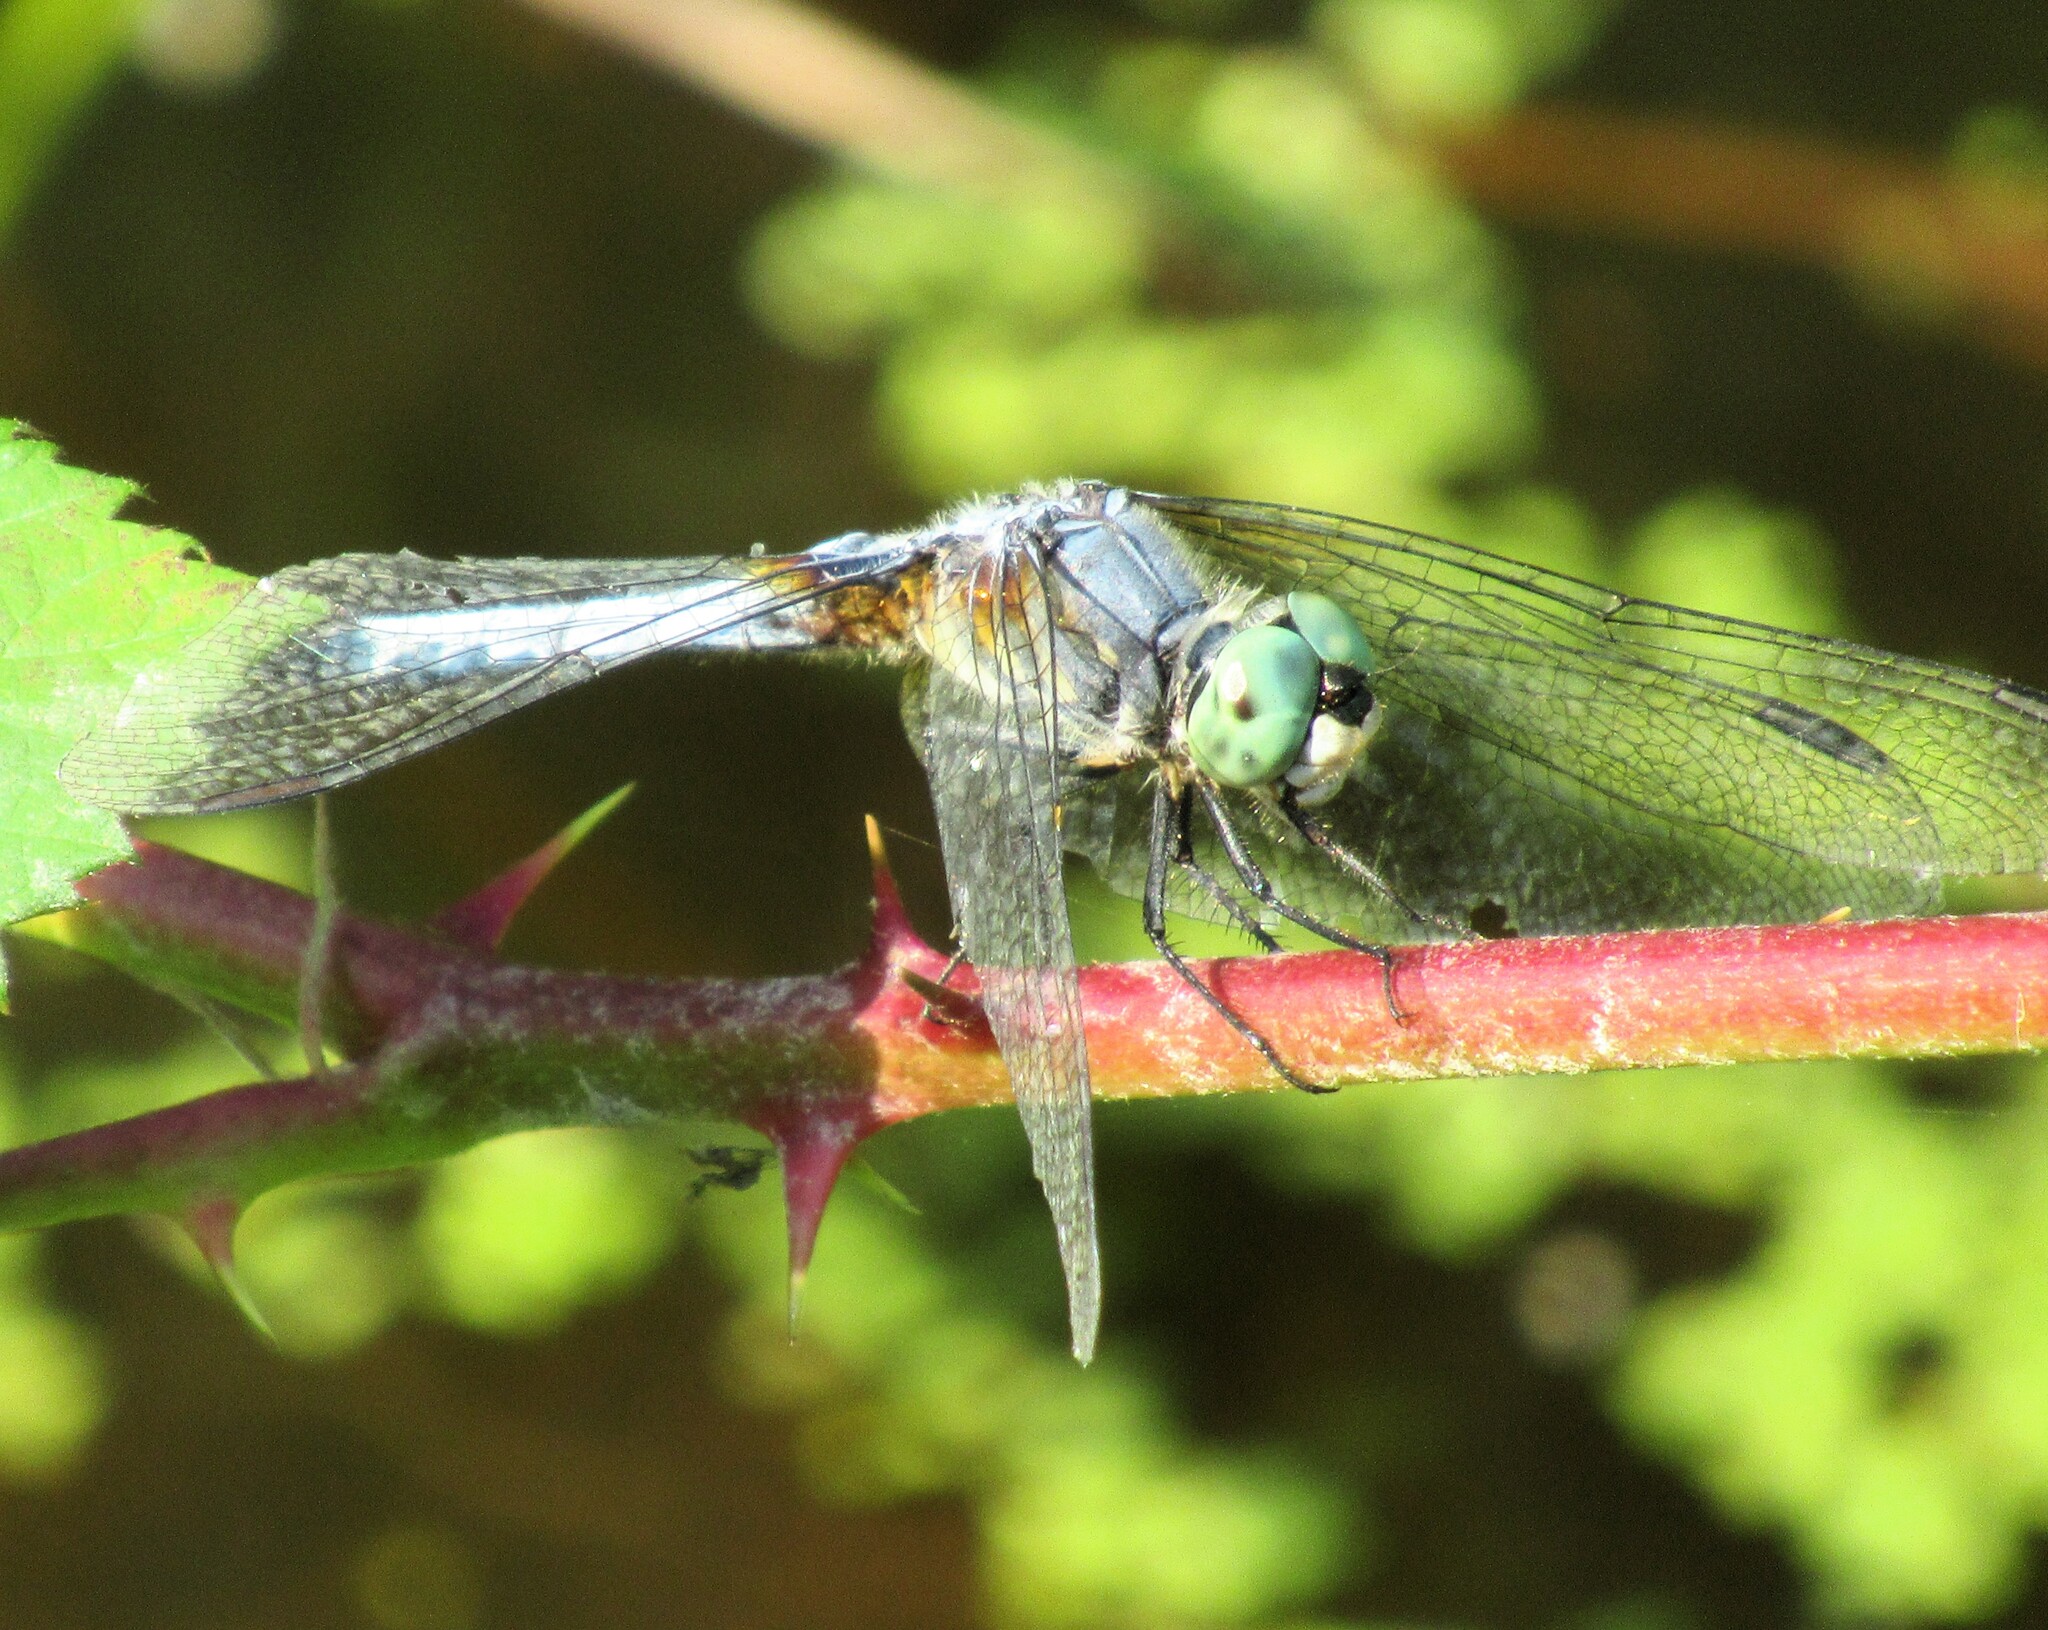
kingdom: Animalia
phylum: Arthropoda
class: Insecta
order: Odonata
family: Libellulidae
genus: Pachydiplax
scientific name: Pachydiplax longipennis
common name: Blue dasher
